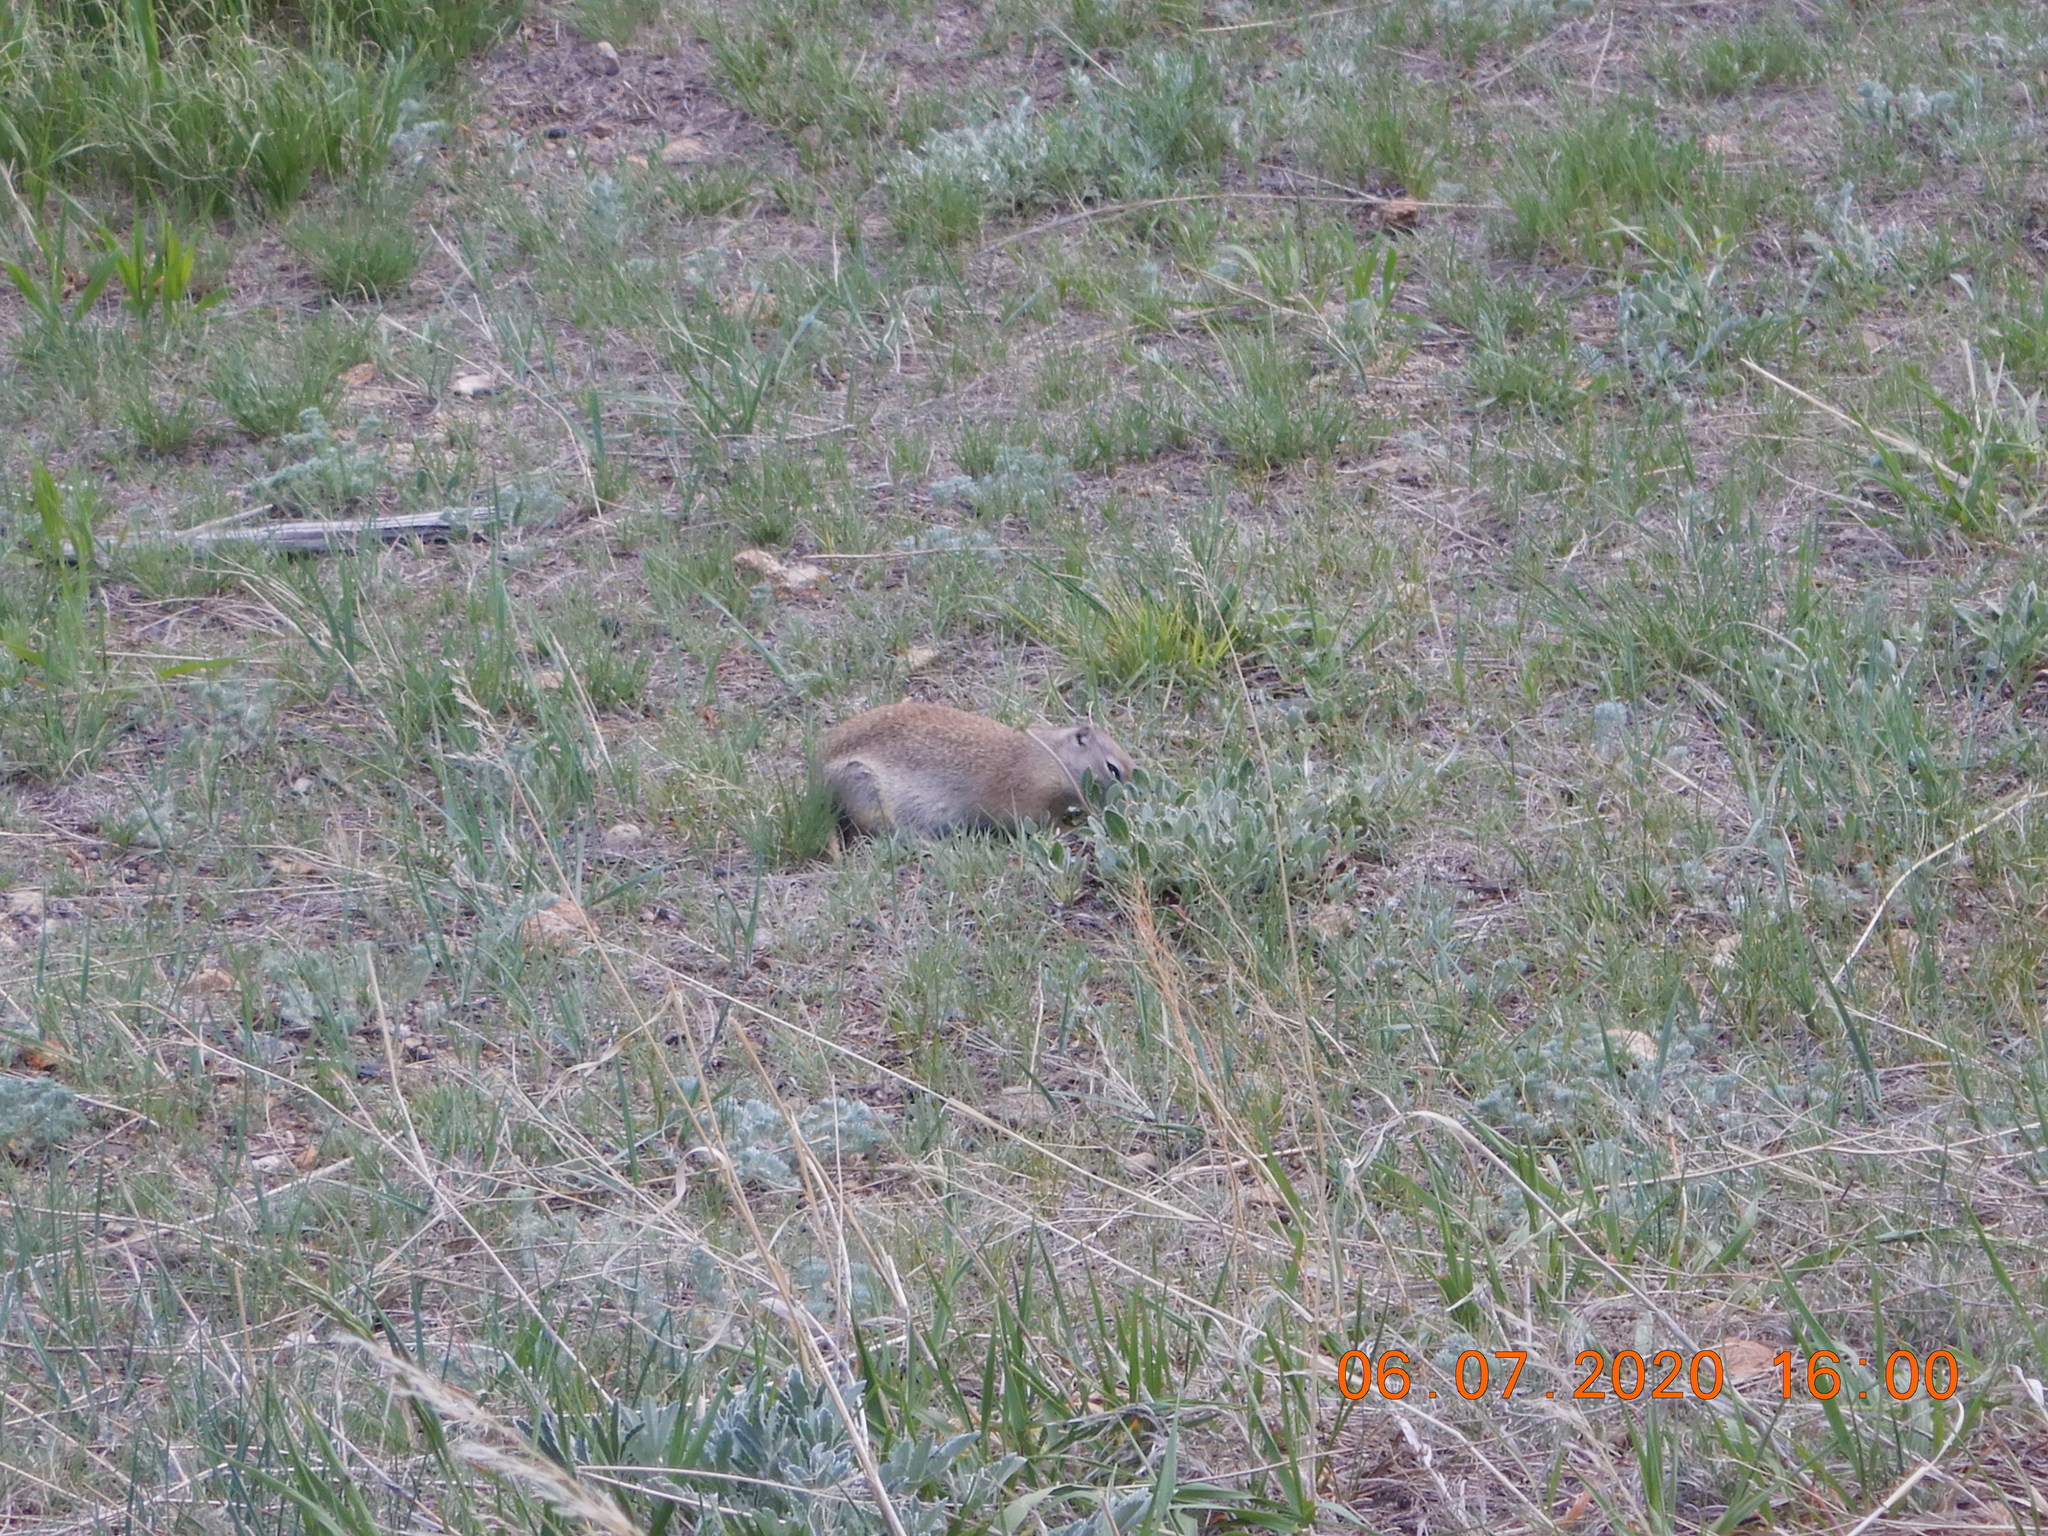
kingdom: Animalia
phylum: Chordata
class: Mammalia
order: Rodentia
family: Sciuridae
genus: Urocitellus
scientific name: Urocitellus elegans
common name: Wyoming ground squirrel
